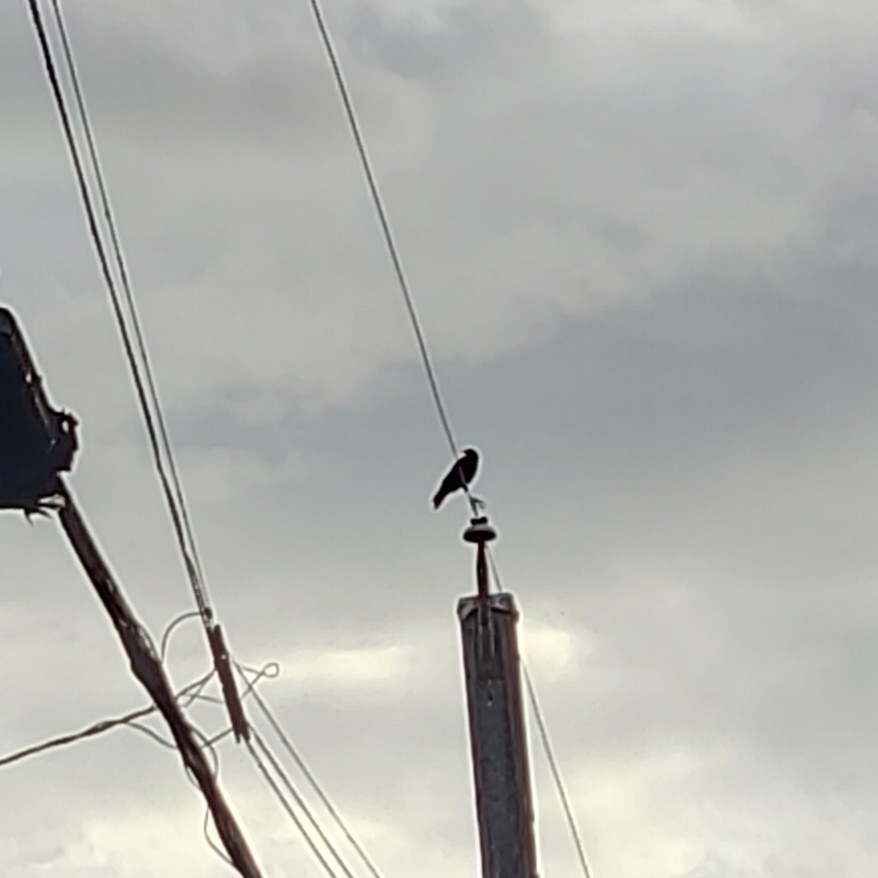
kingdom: Animalia
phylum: Chordata
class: Aves
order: Passeriformes
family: Corvidae
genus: Corvus
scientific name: Corvus brachyrhynchos
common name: American crow
